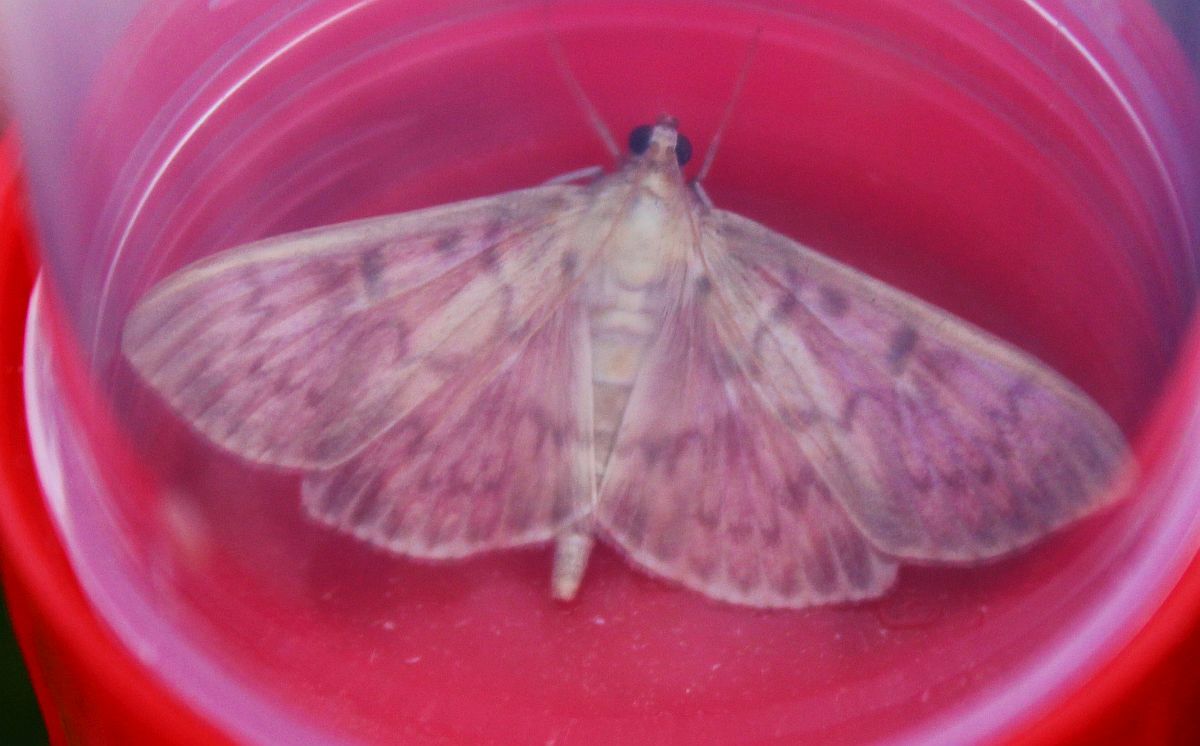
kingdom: Animalia
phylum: Arthropoda
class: Insecta
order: Lepidoptera
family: Crambidae
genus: Patania
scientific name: Patania ruralis
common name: Mother of pearl
